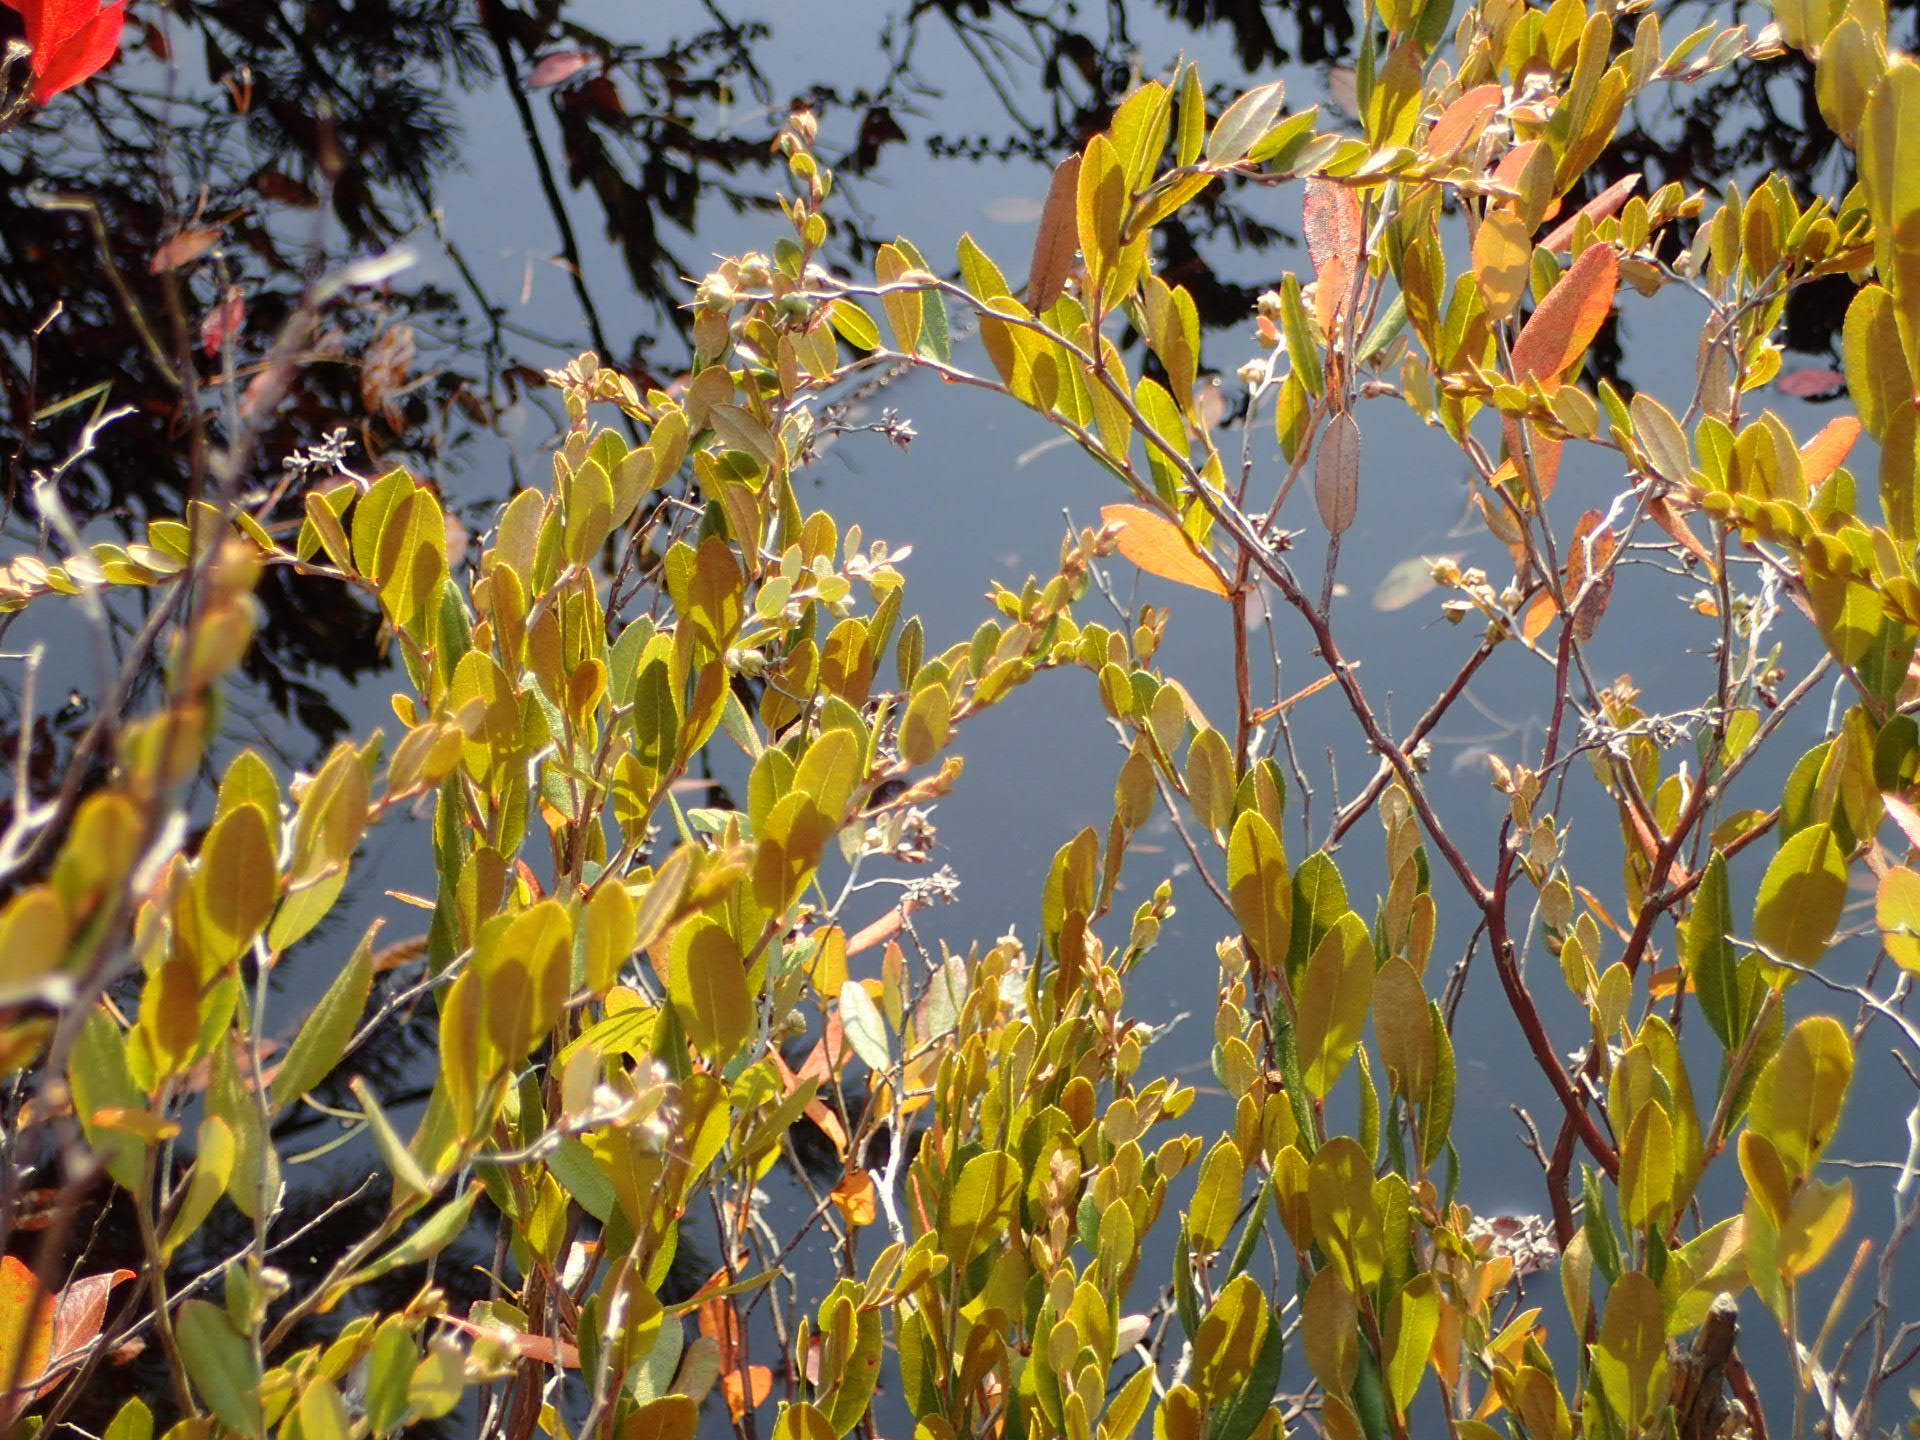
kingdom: Plantae
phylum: Tracheophyta
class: Magnoliopsida
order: Ericales
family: Ericaceae
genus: Chamaedaphne
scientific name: Chamaedaphne calyculata
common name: Leatherleaf
